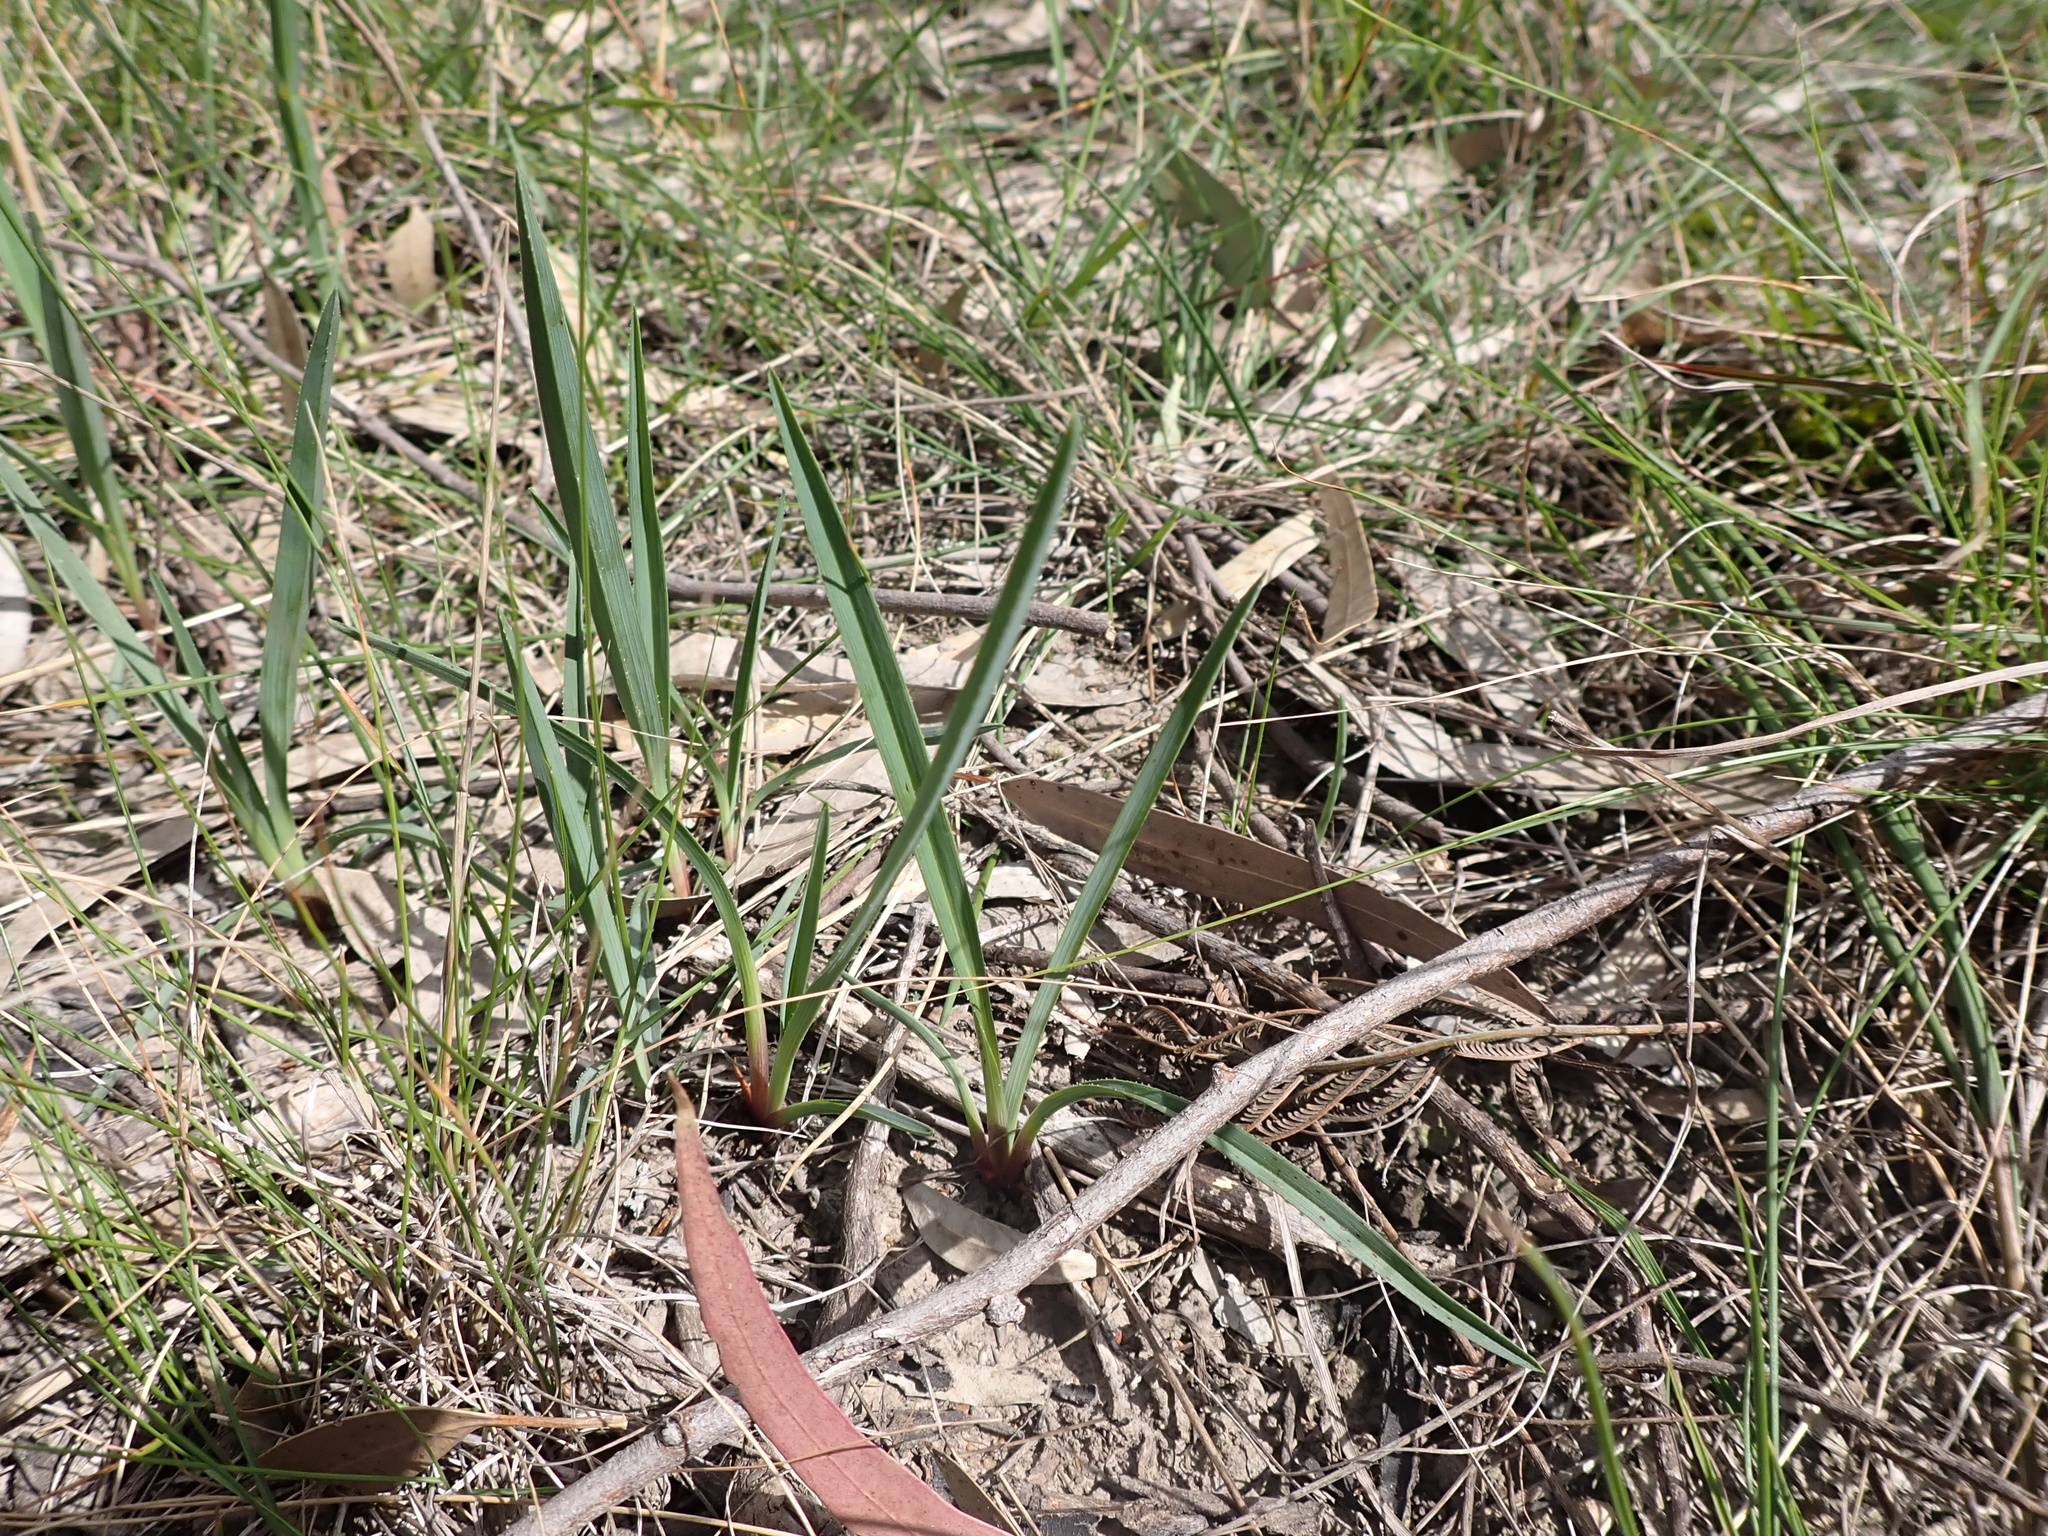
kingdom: Plantae
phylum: Tracheophyta
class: Liliopsida
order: Asparagales
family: Asphodelaceae
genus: Dianella
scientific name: Dianella amoena
